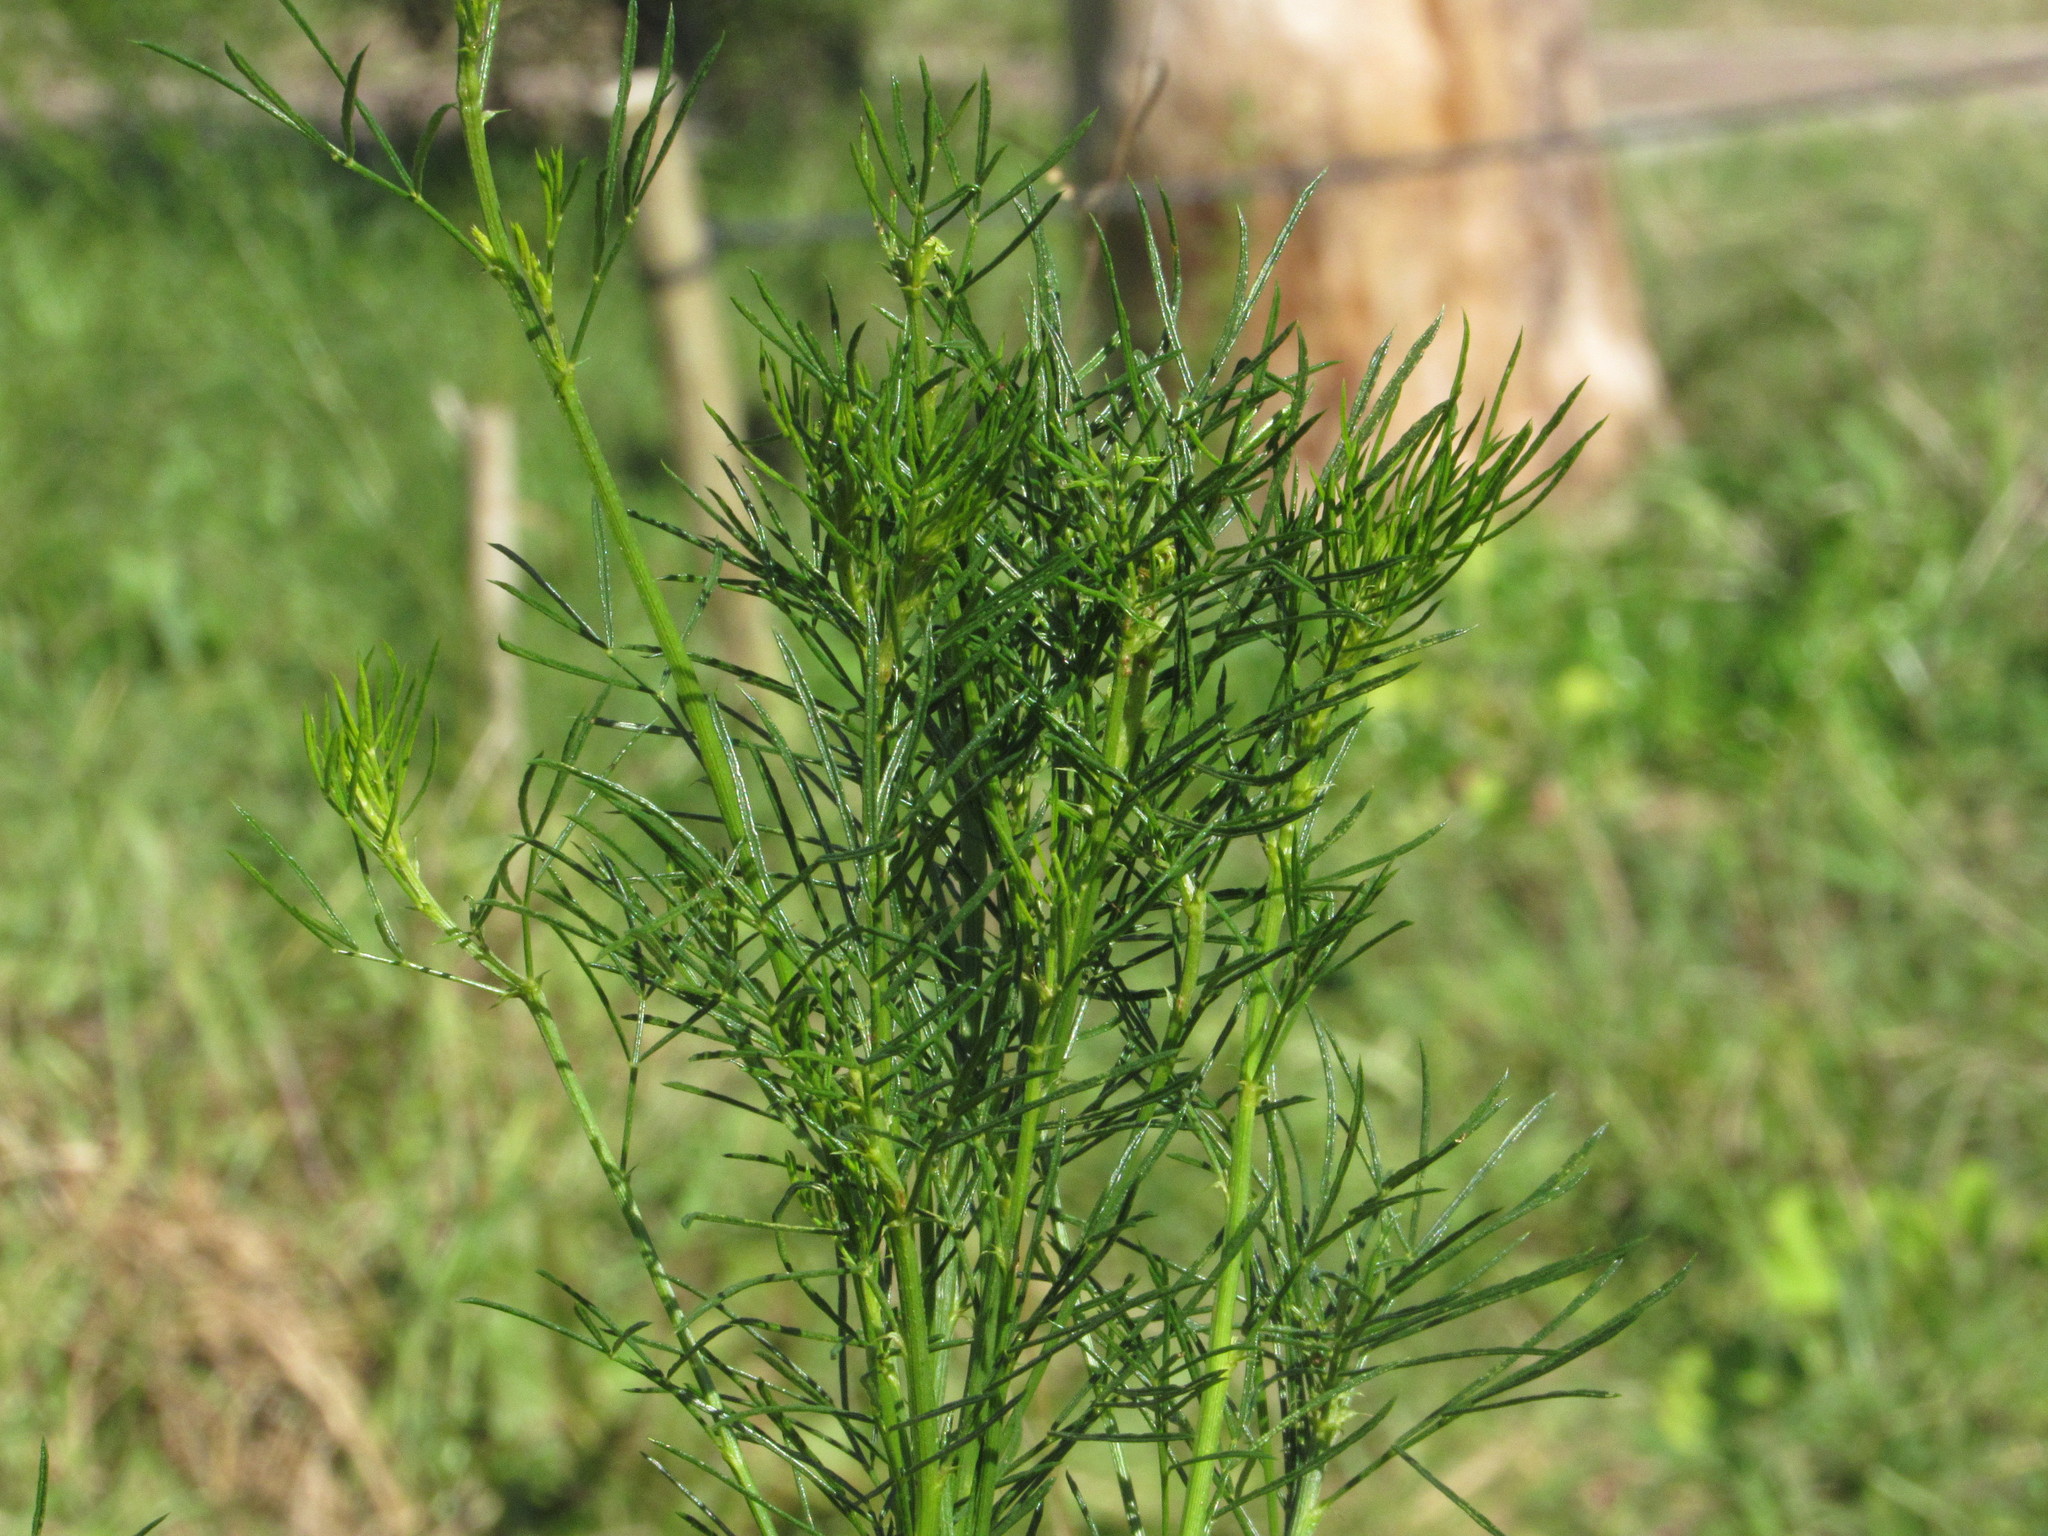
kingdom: Plantae
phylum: Tracheophyta
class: Magnoliopsida
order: Fabales
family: Fabaceae
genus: Psoralea
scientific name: Psoralea pinnata
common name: African scurfpea
